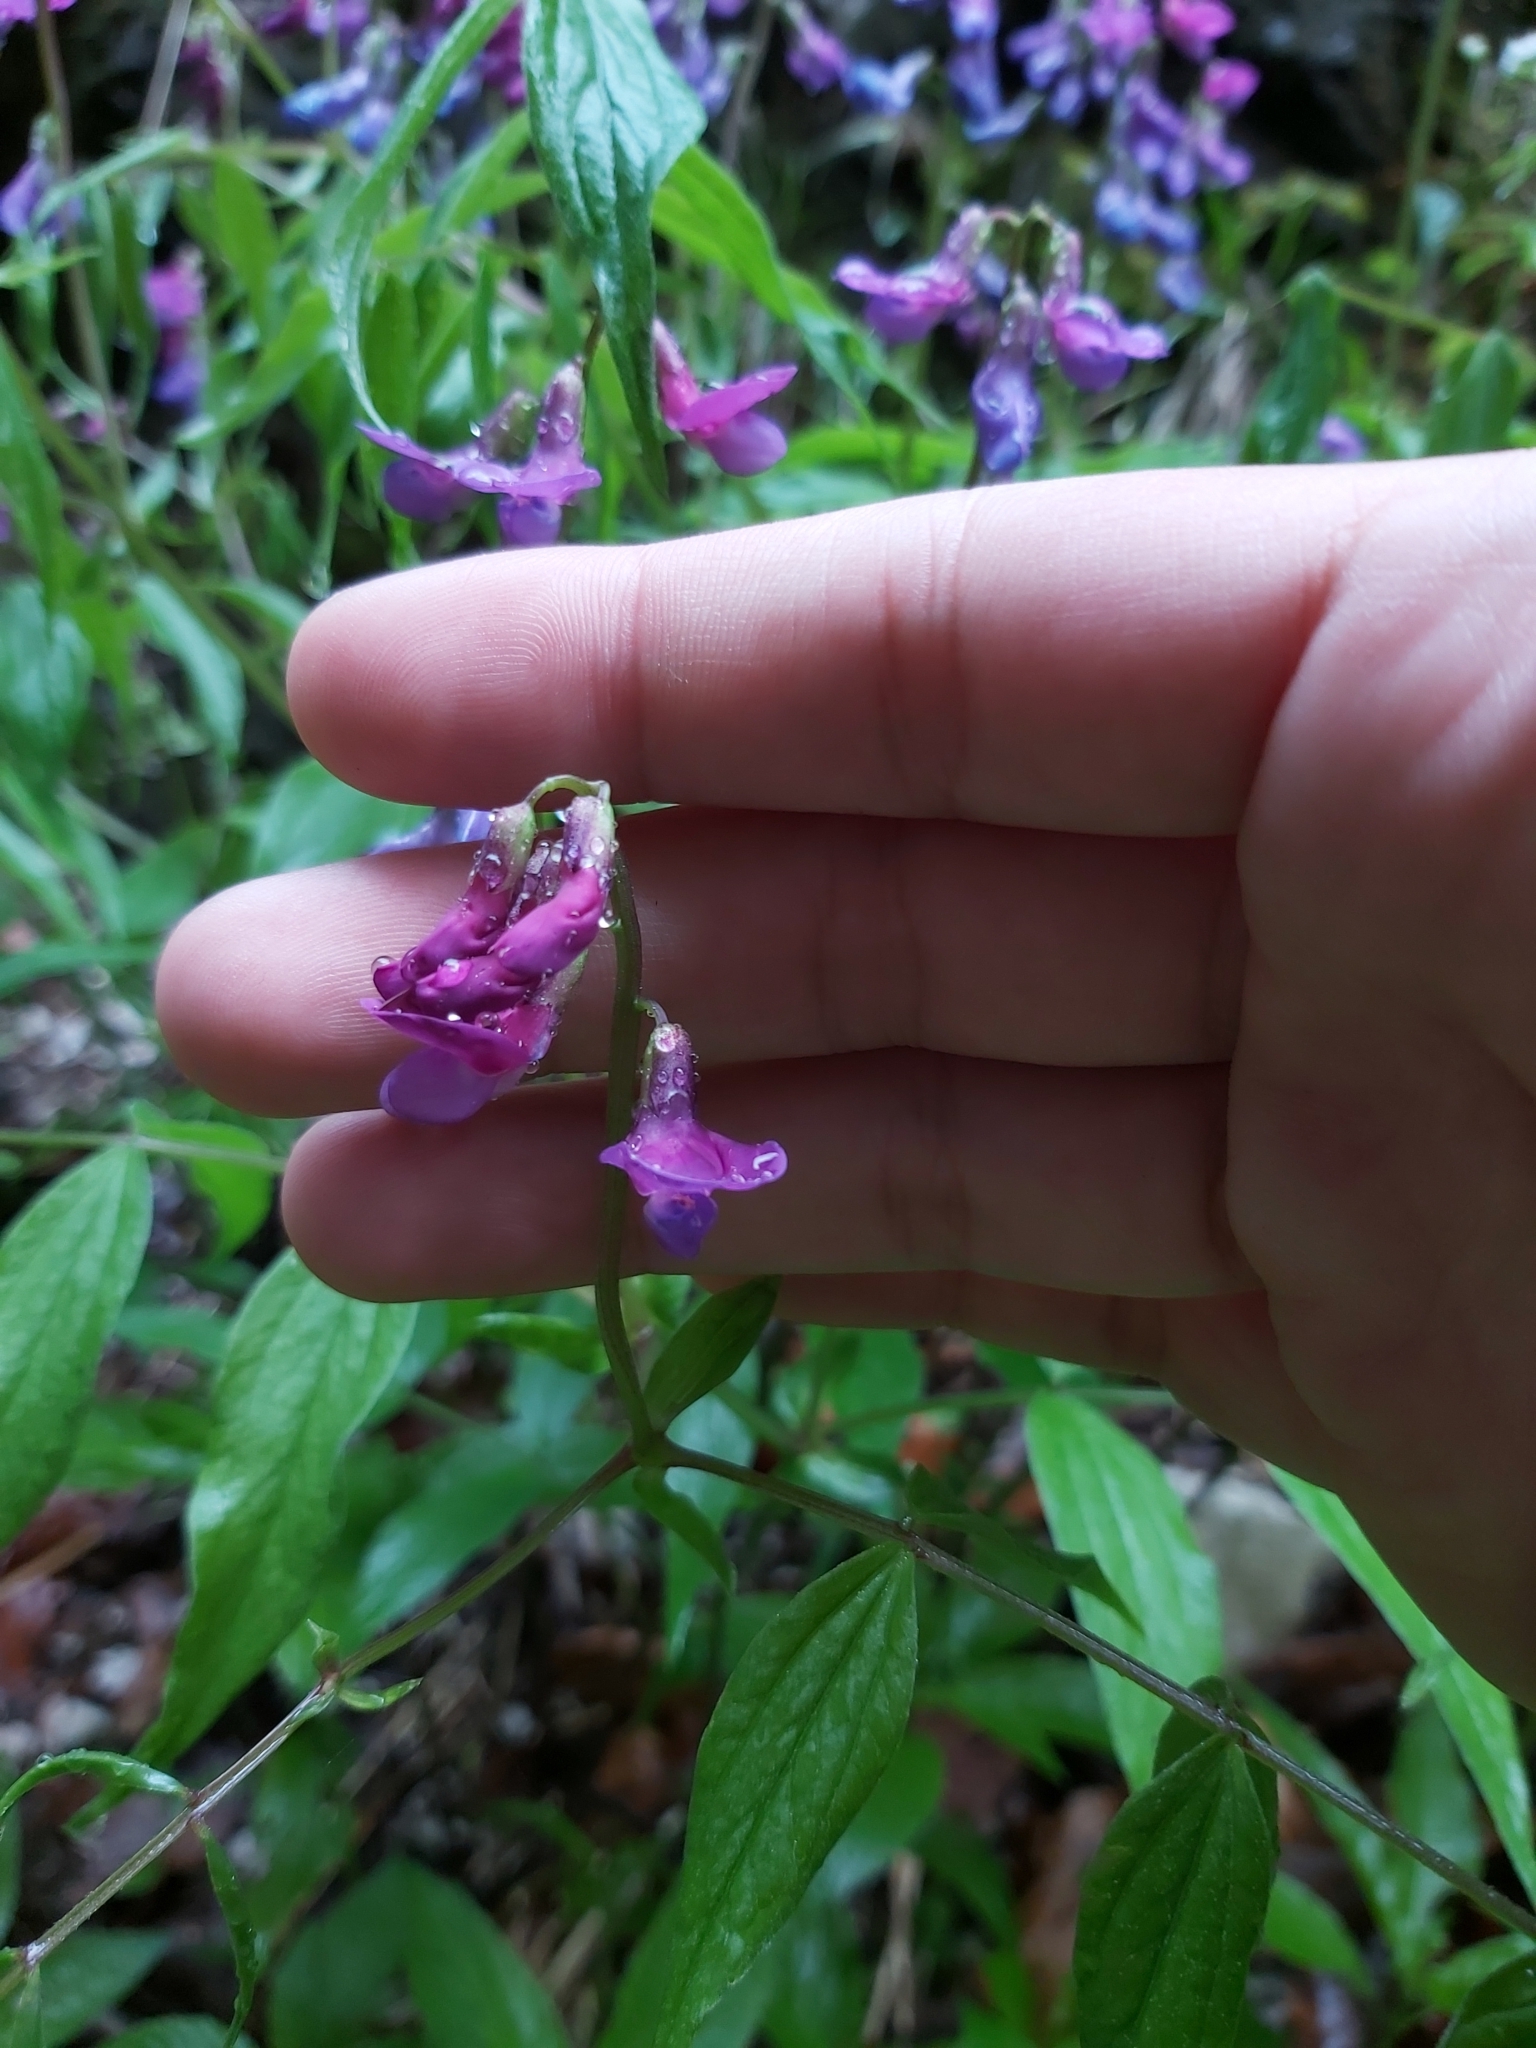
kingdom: Plantae
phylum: Tracheophyta
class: Magnoliopsida
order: Fabales
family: Fabaceae
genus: Lathyrus
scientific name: Lathyrus vernus
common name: Spring pea
